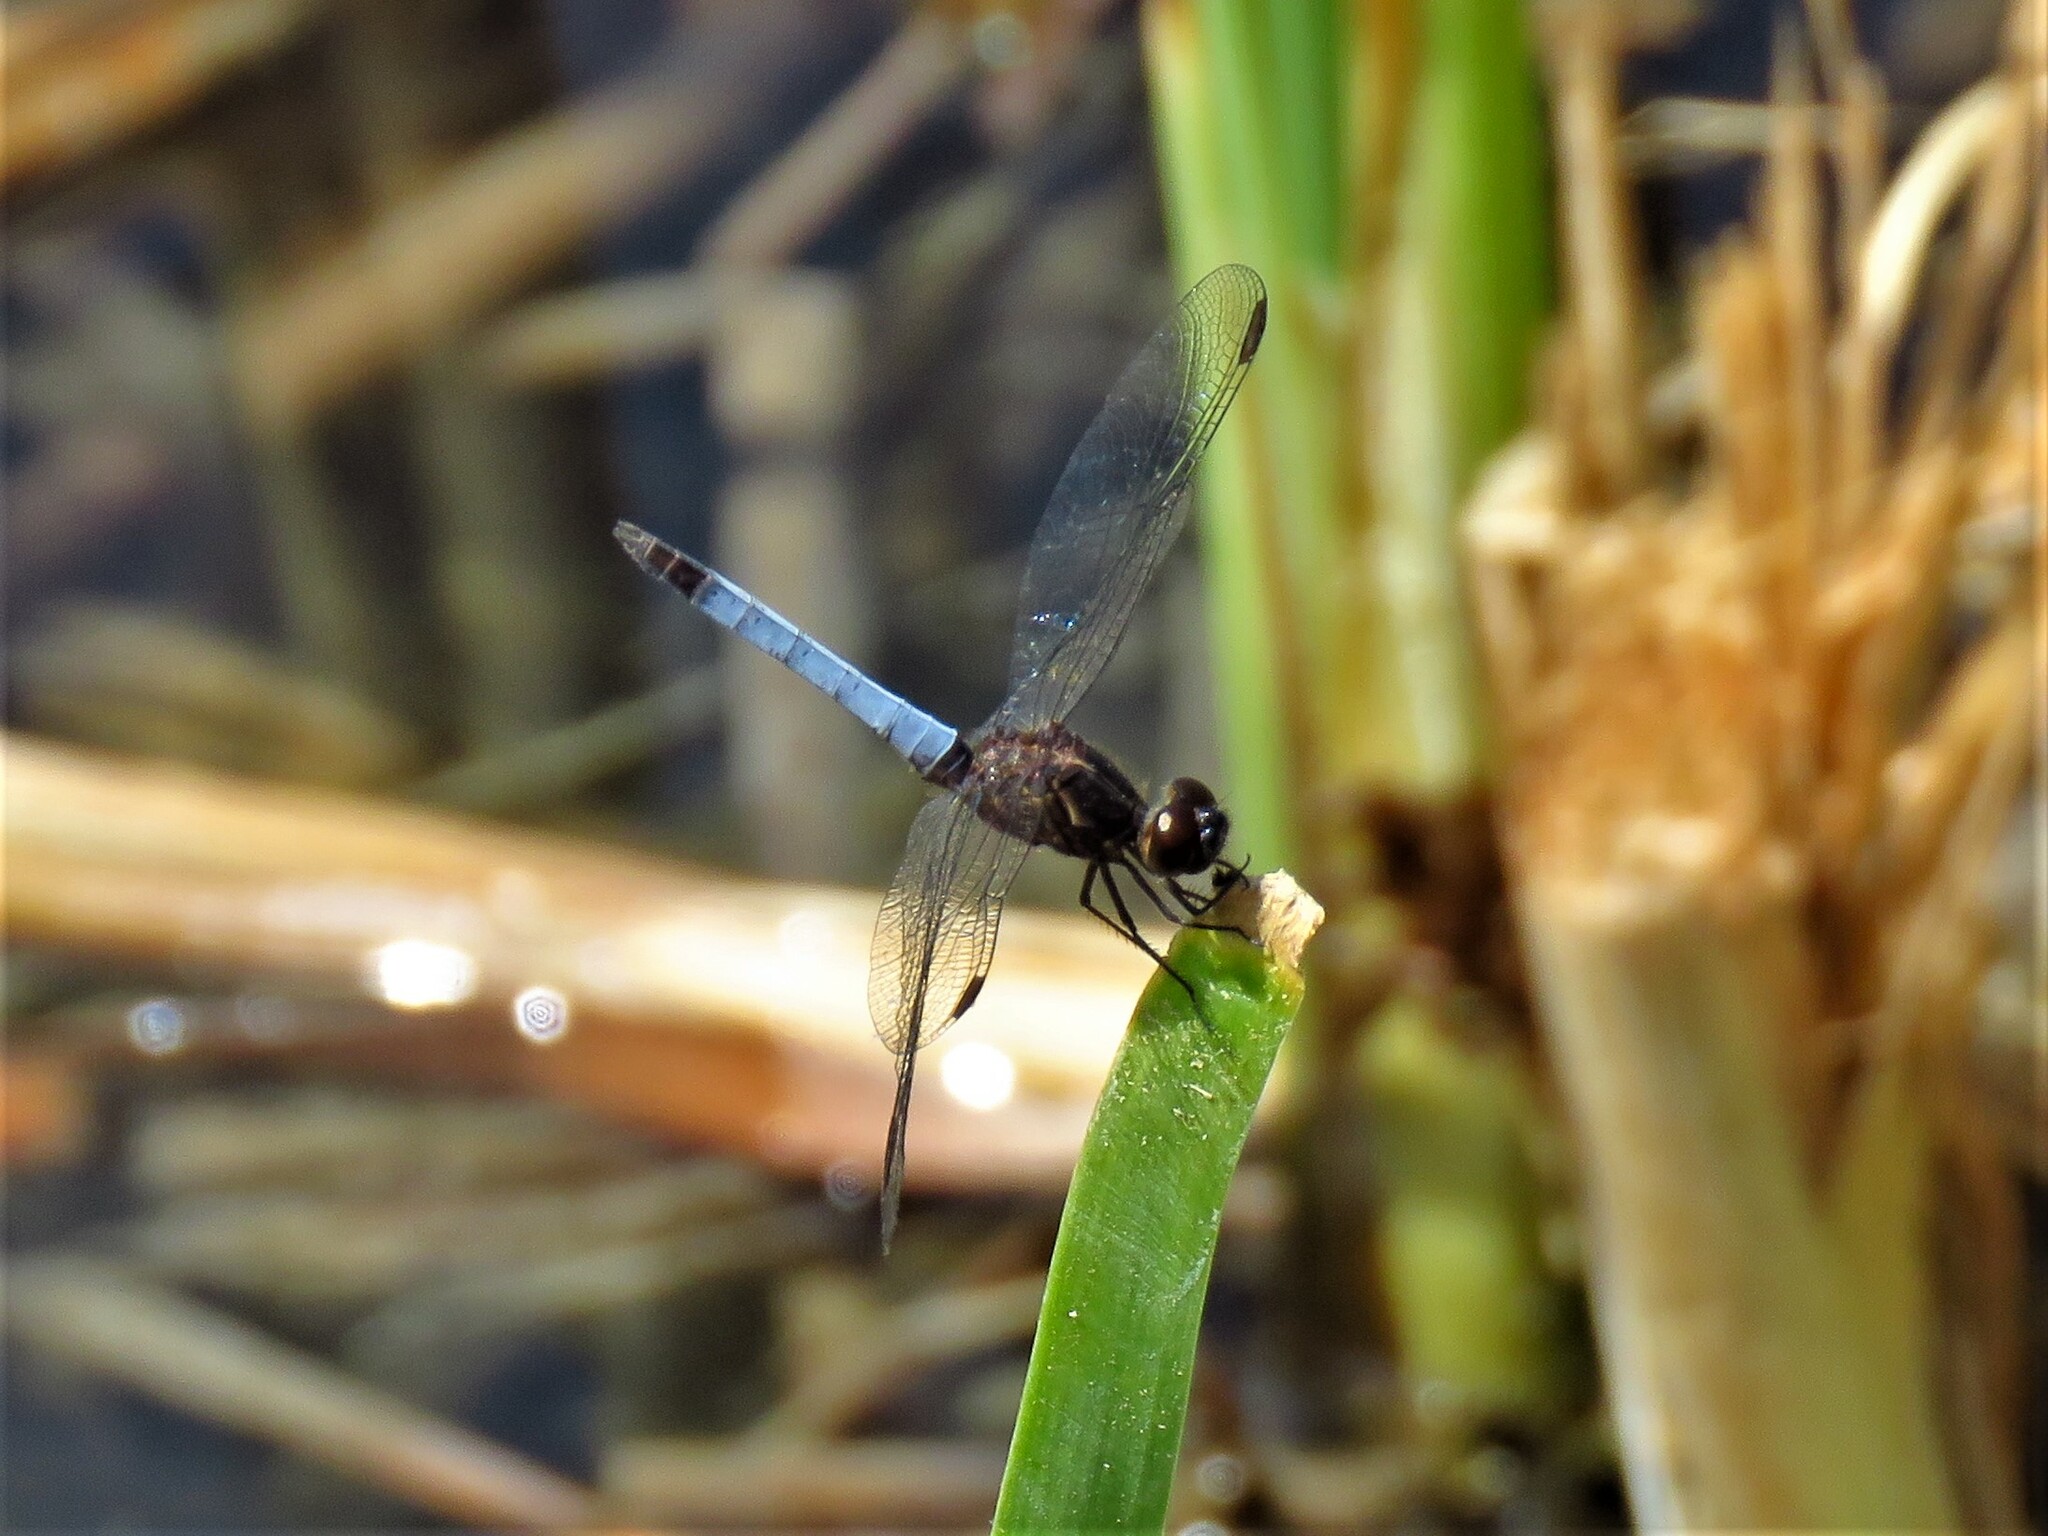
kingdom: Animalia
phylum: Arthropoda
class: Insecta
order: Odonata
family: Libellulidae
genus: Erythrodiplax
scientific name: Erythrodiplax basifusca
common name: Plateau dragonlet
